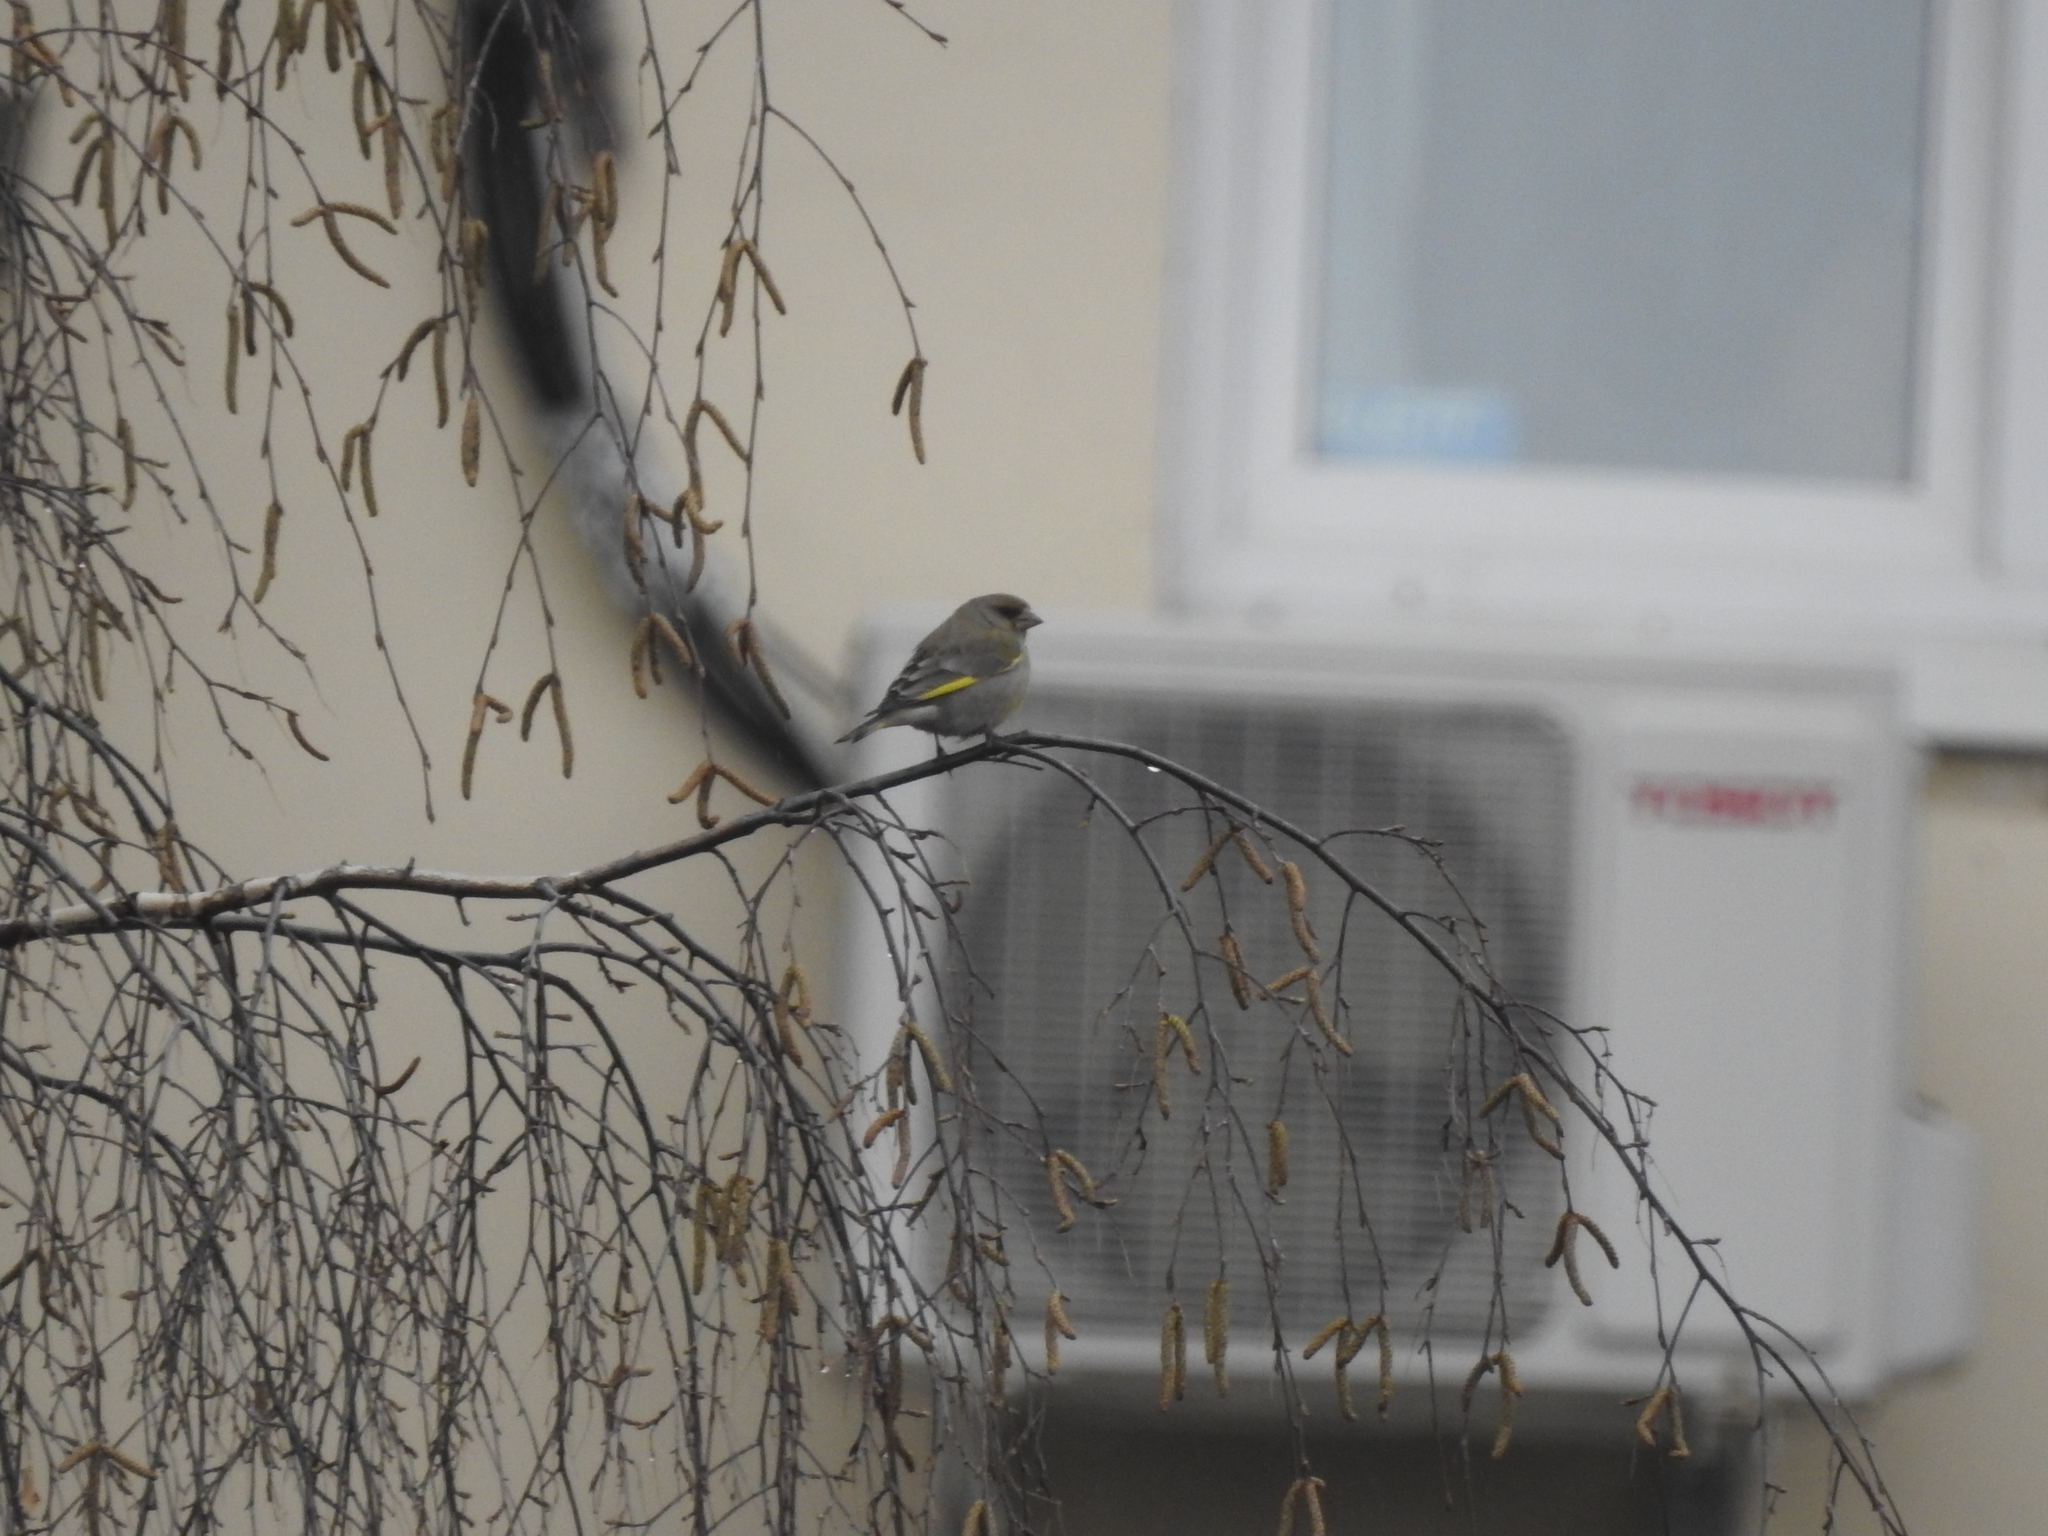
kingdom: Plantae
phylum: Tracheophyta
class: Liliopsida
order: Poales
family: Poaceae
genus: Chloris
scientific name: Chloris chloris
